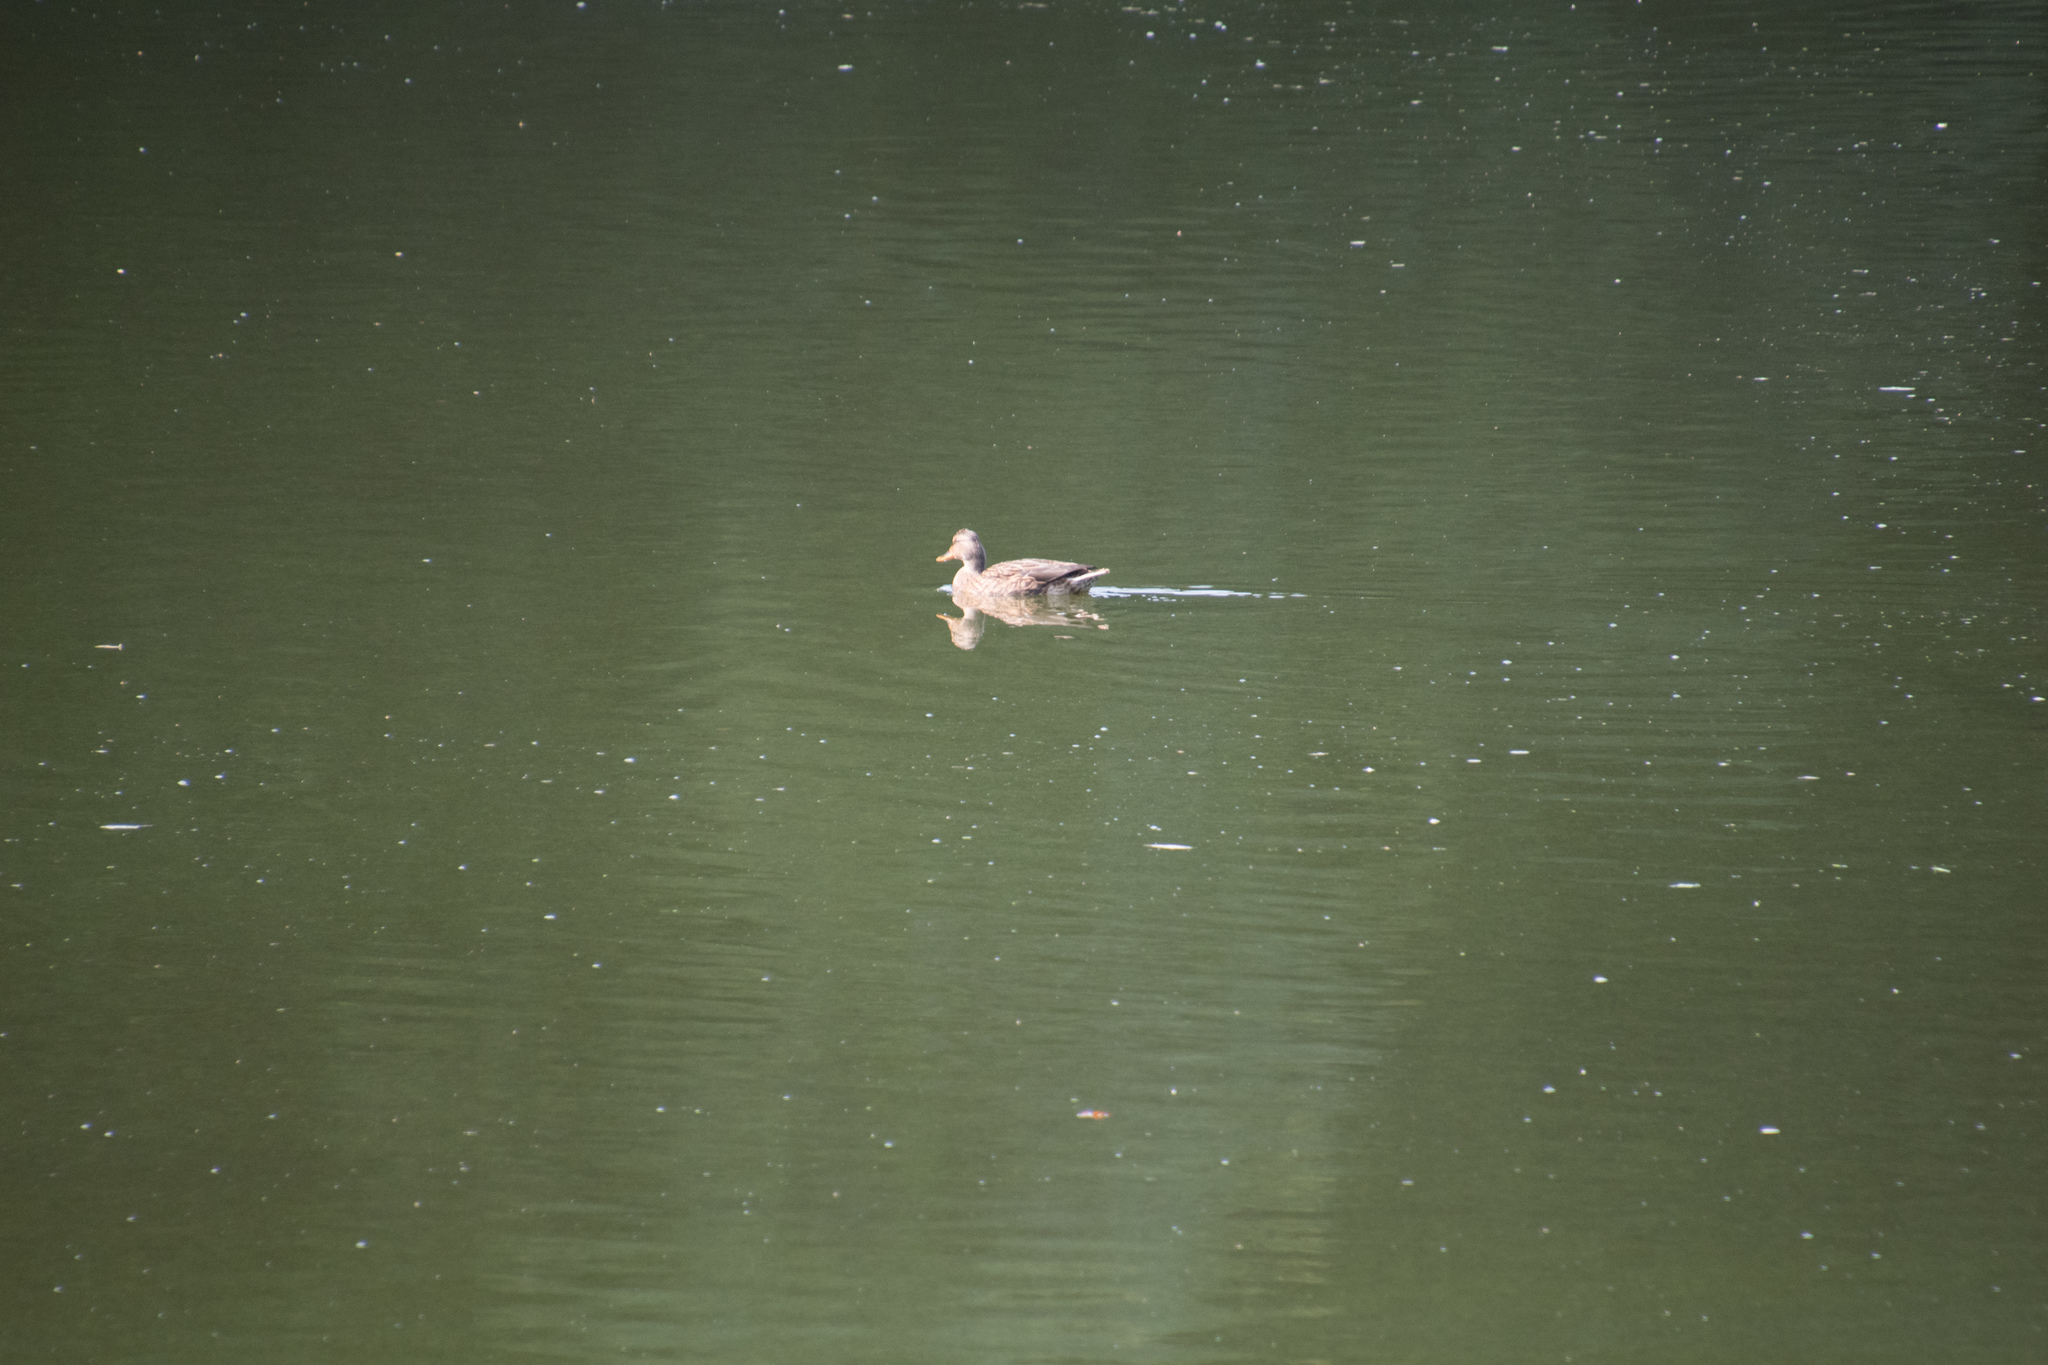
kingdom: Animalia
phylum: Chordata
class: Aves
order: Anseriformes
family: Anatidae
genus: Anas
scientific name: Anas platyrhynchos
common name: Mallard
